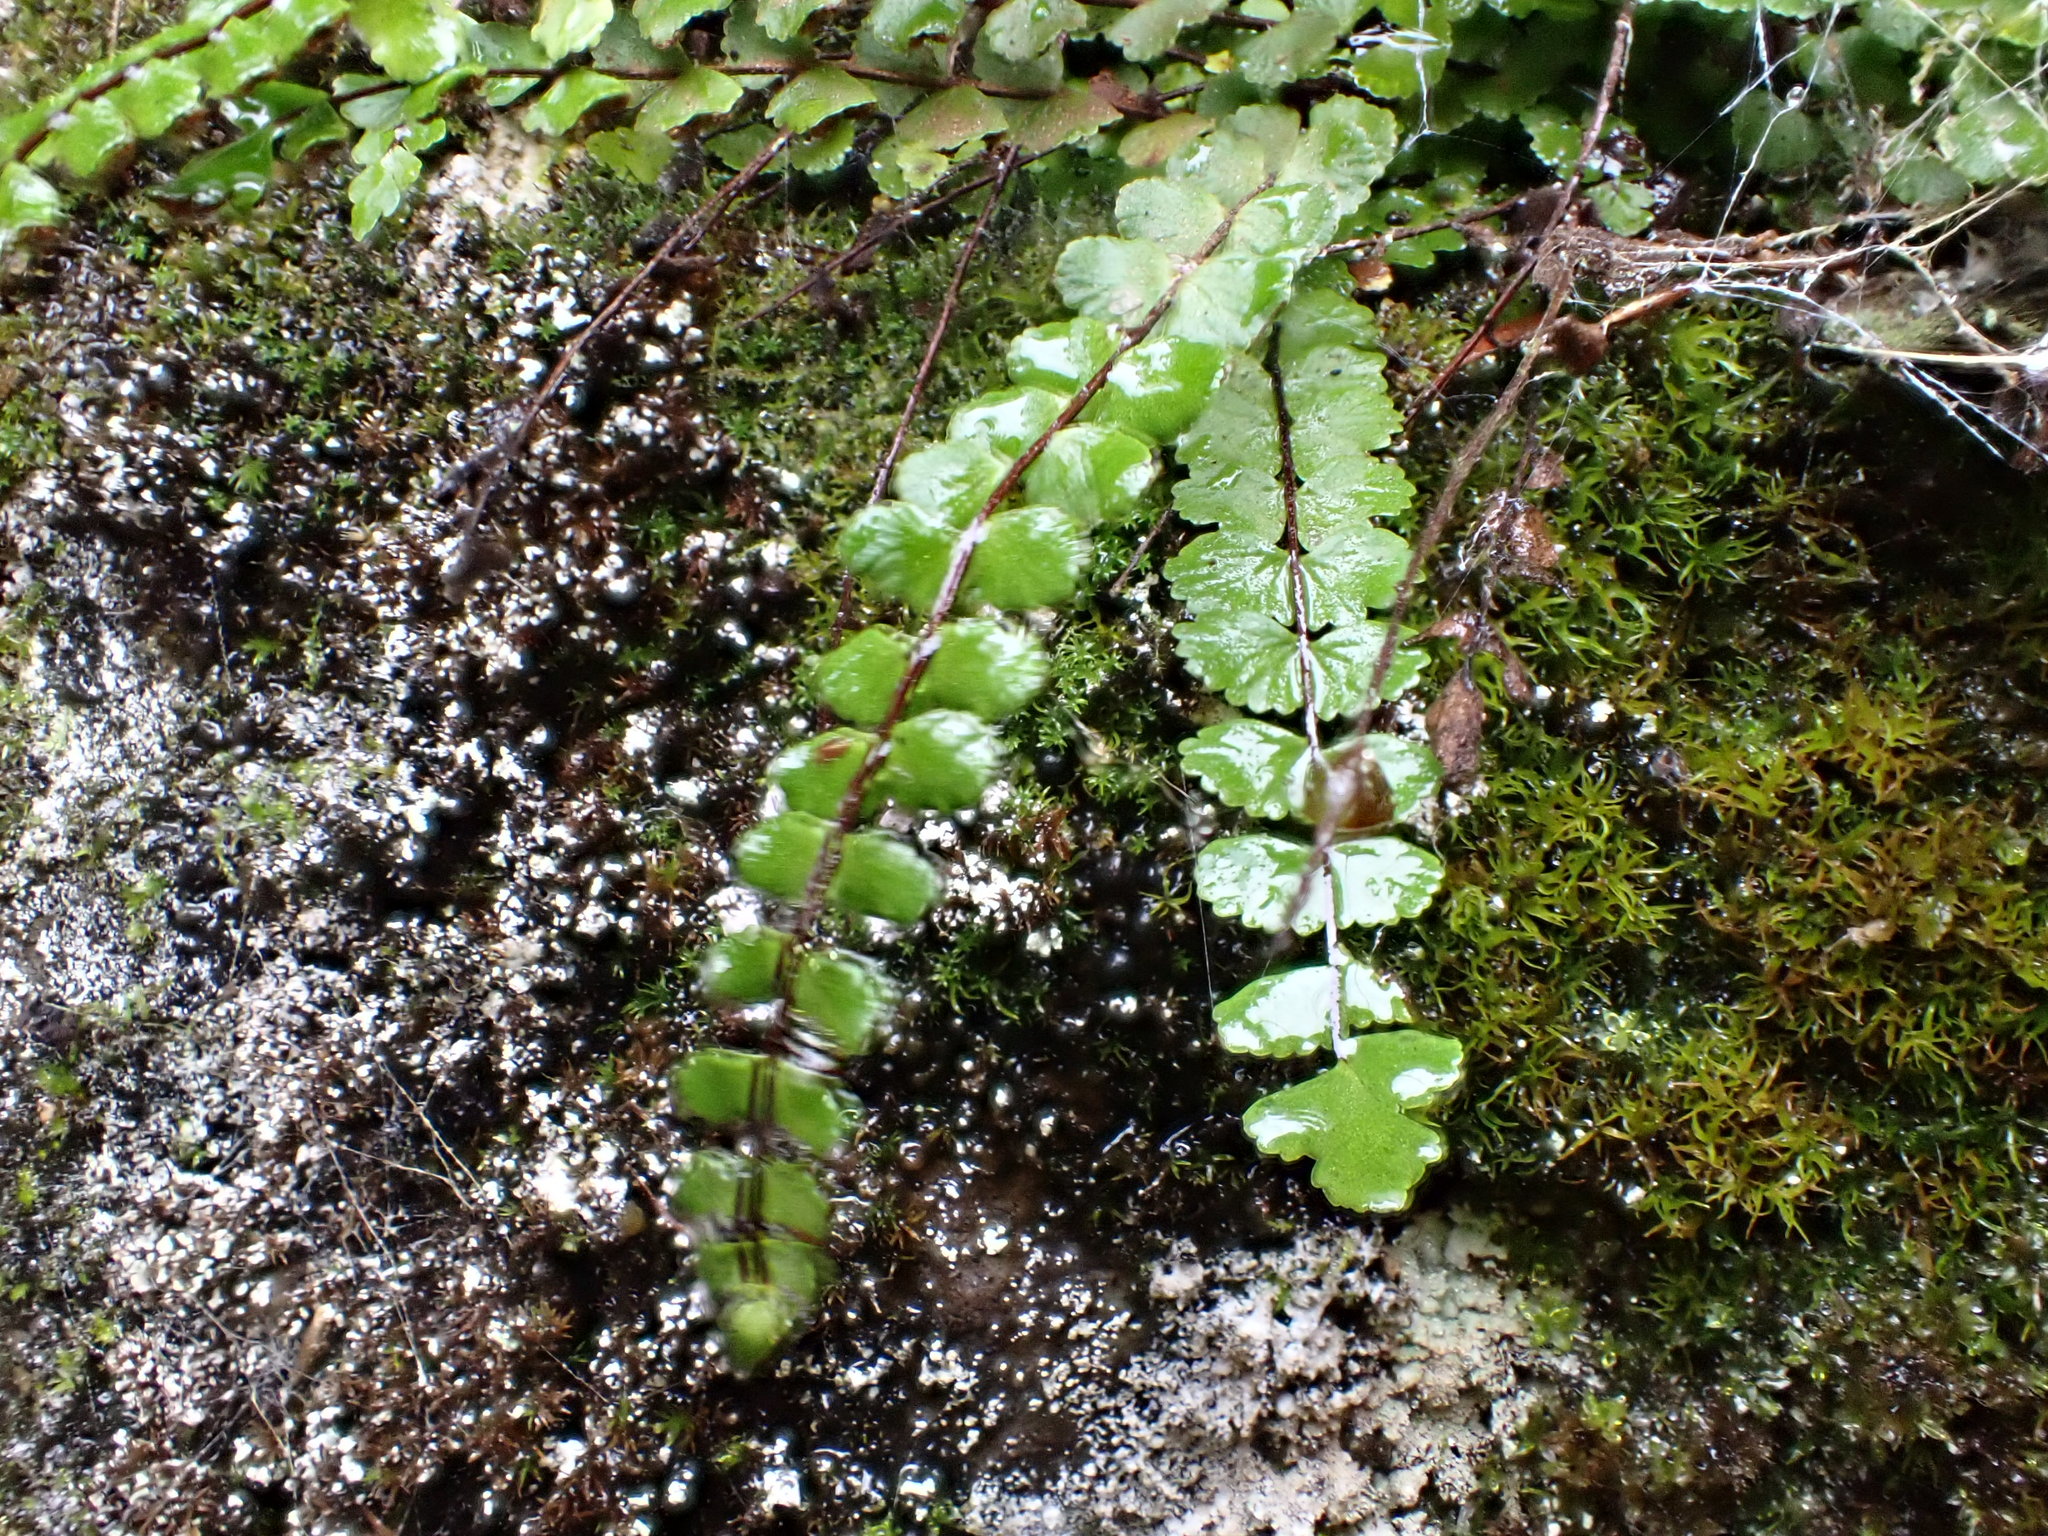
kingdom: Plantae
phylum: Tracheophyta
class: Polypodiopsida
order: Polypodiales
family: Aspleniaceae
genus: Asplenium
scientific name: Asplenium trichomanes
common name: Maidenhair spleenwort
